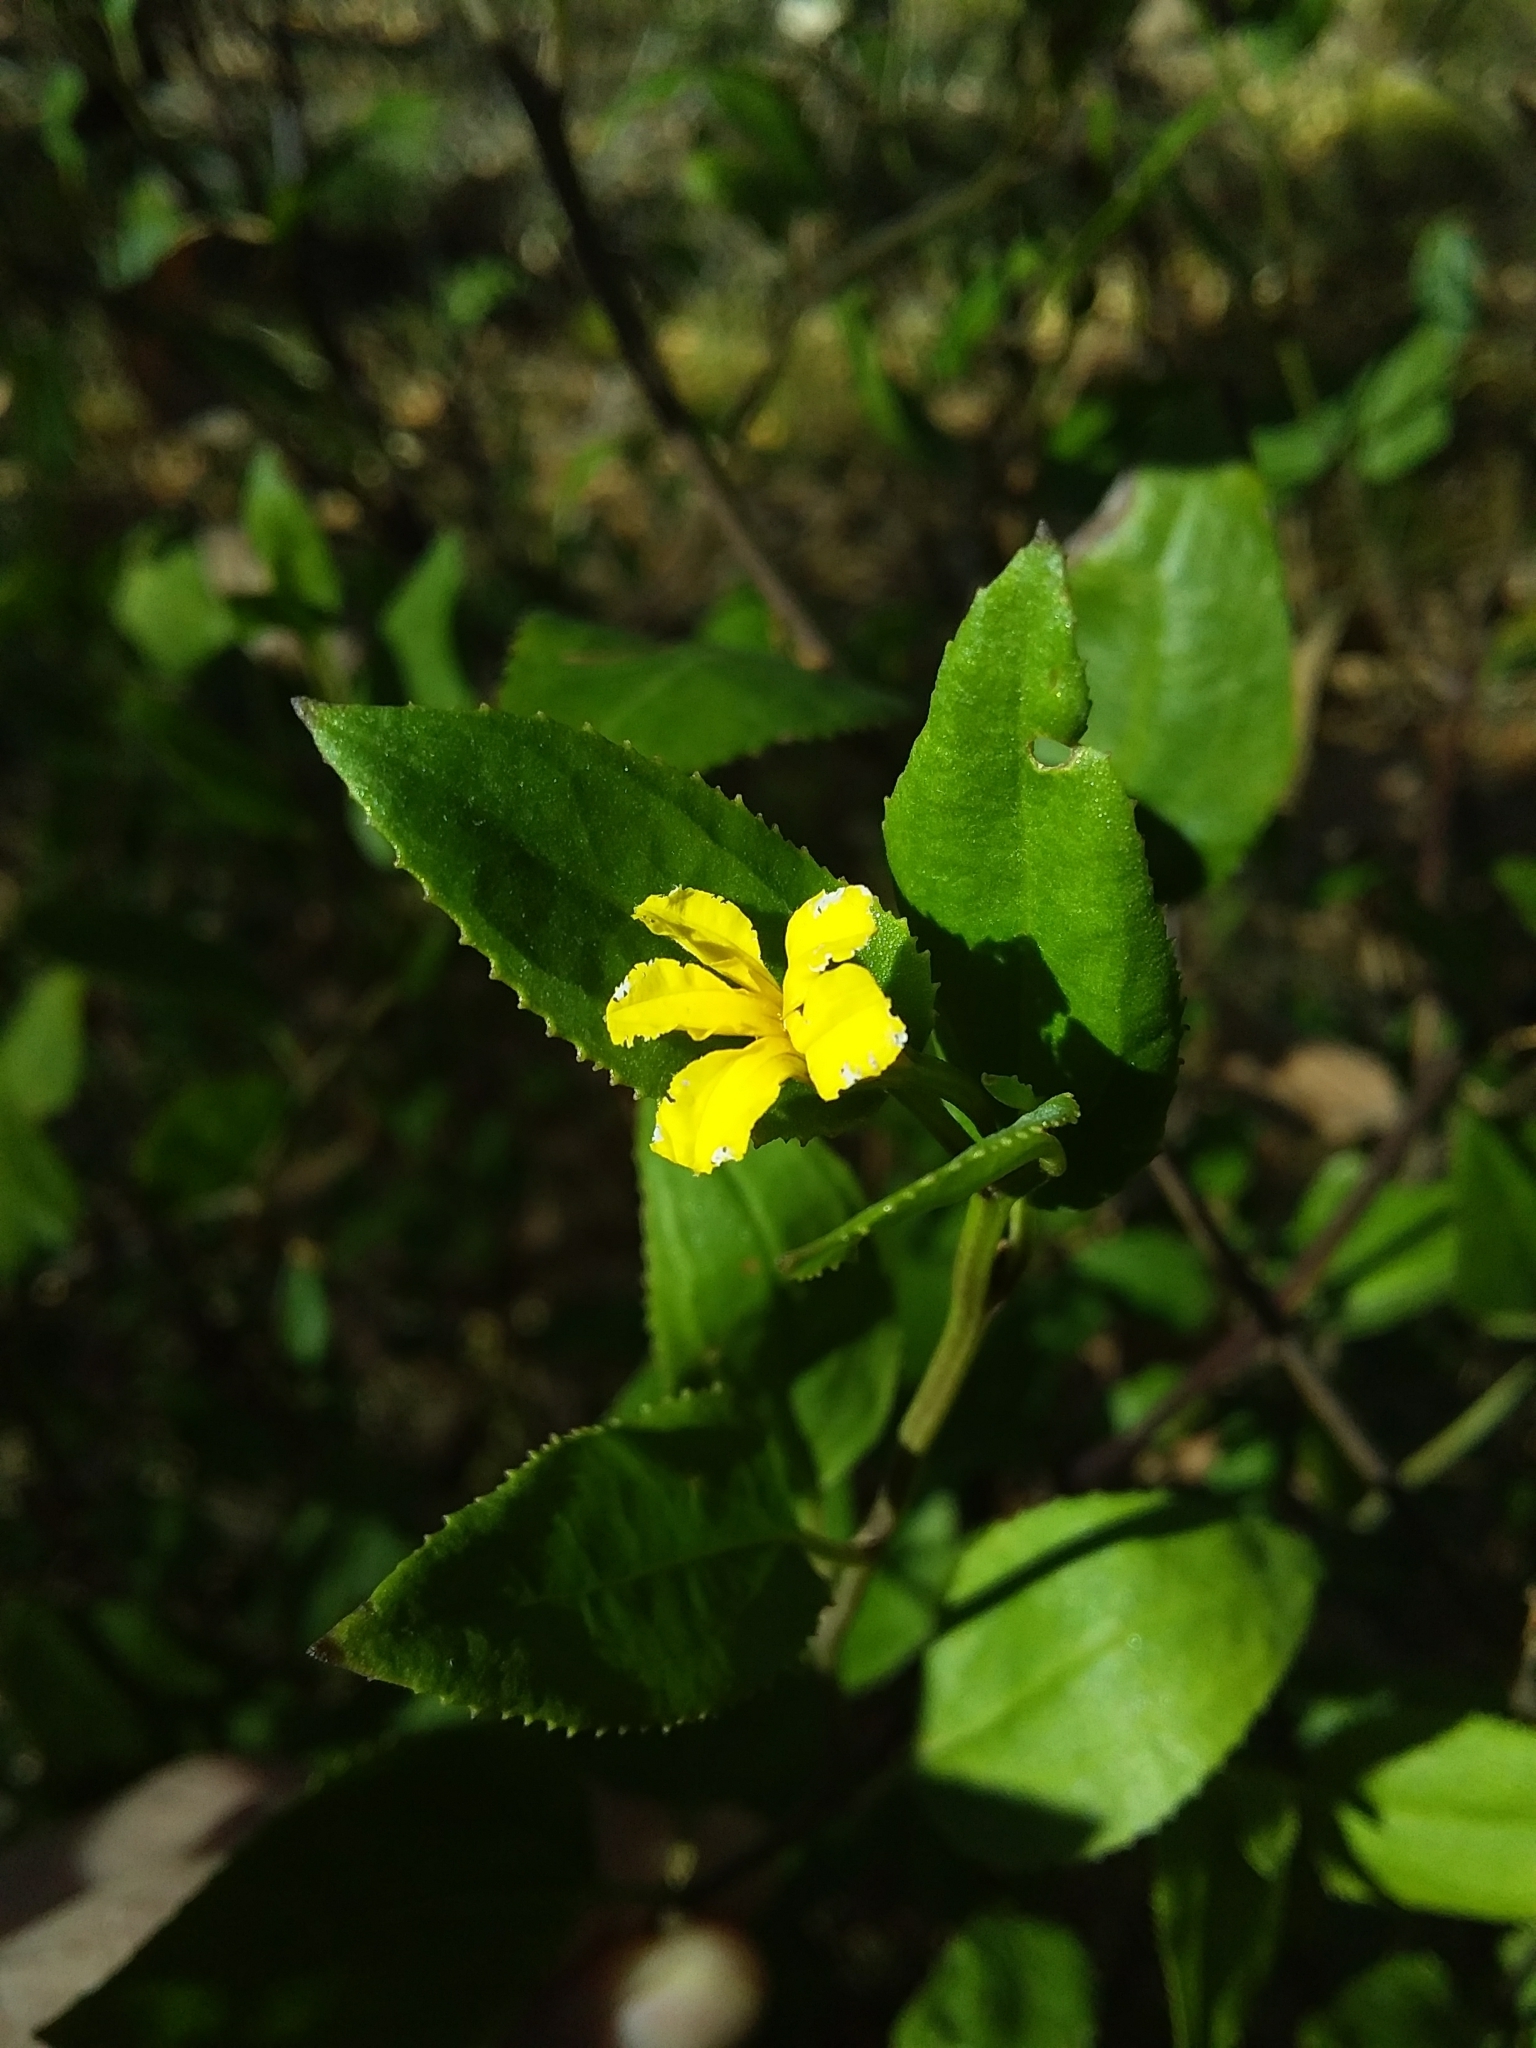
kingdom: Plantae
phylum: Tracheophyta
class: Magnoliopsida
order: Asterales
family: Goodeniaceae
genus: Goodenia
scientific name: Goodenia ovata
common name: Hop goodenia
